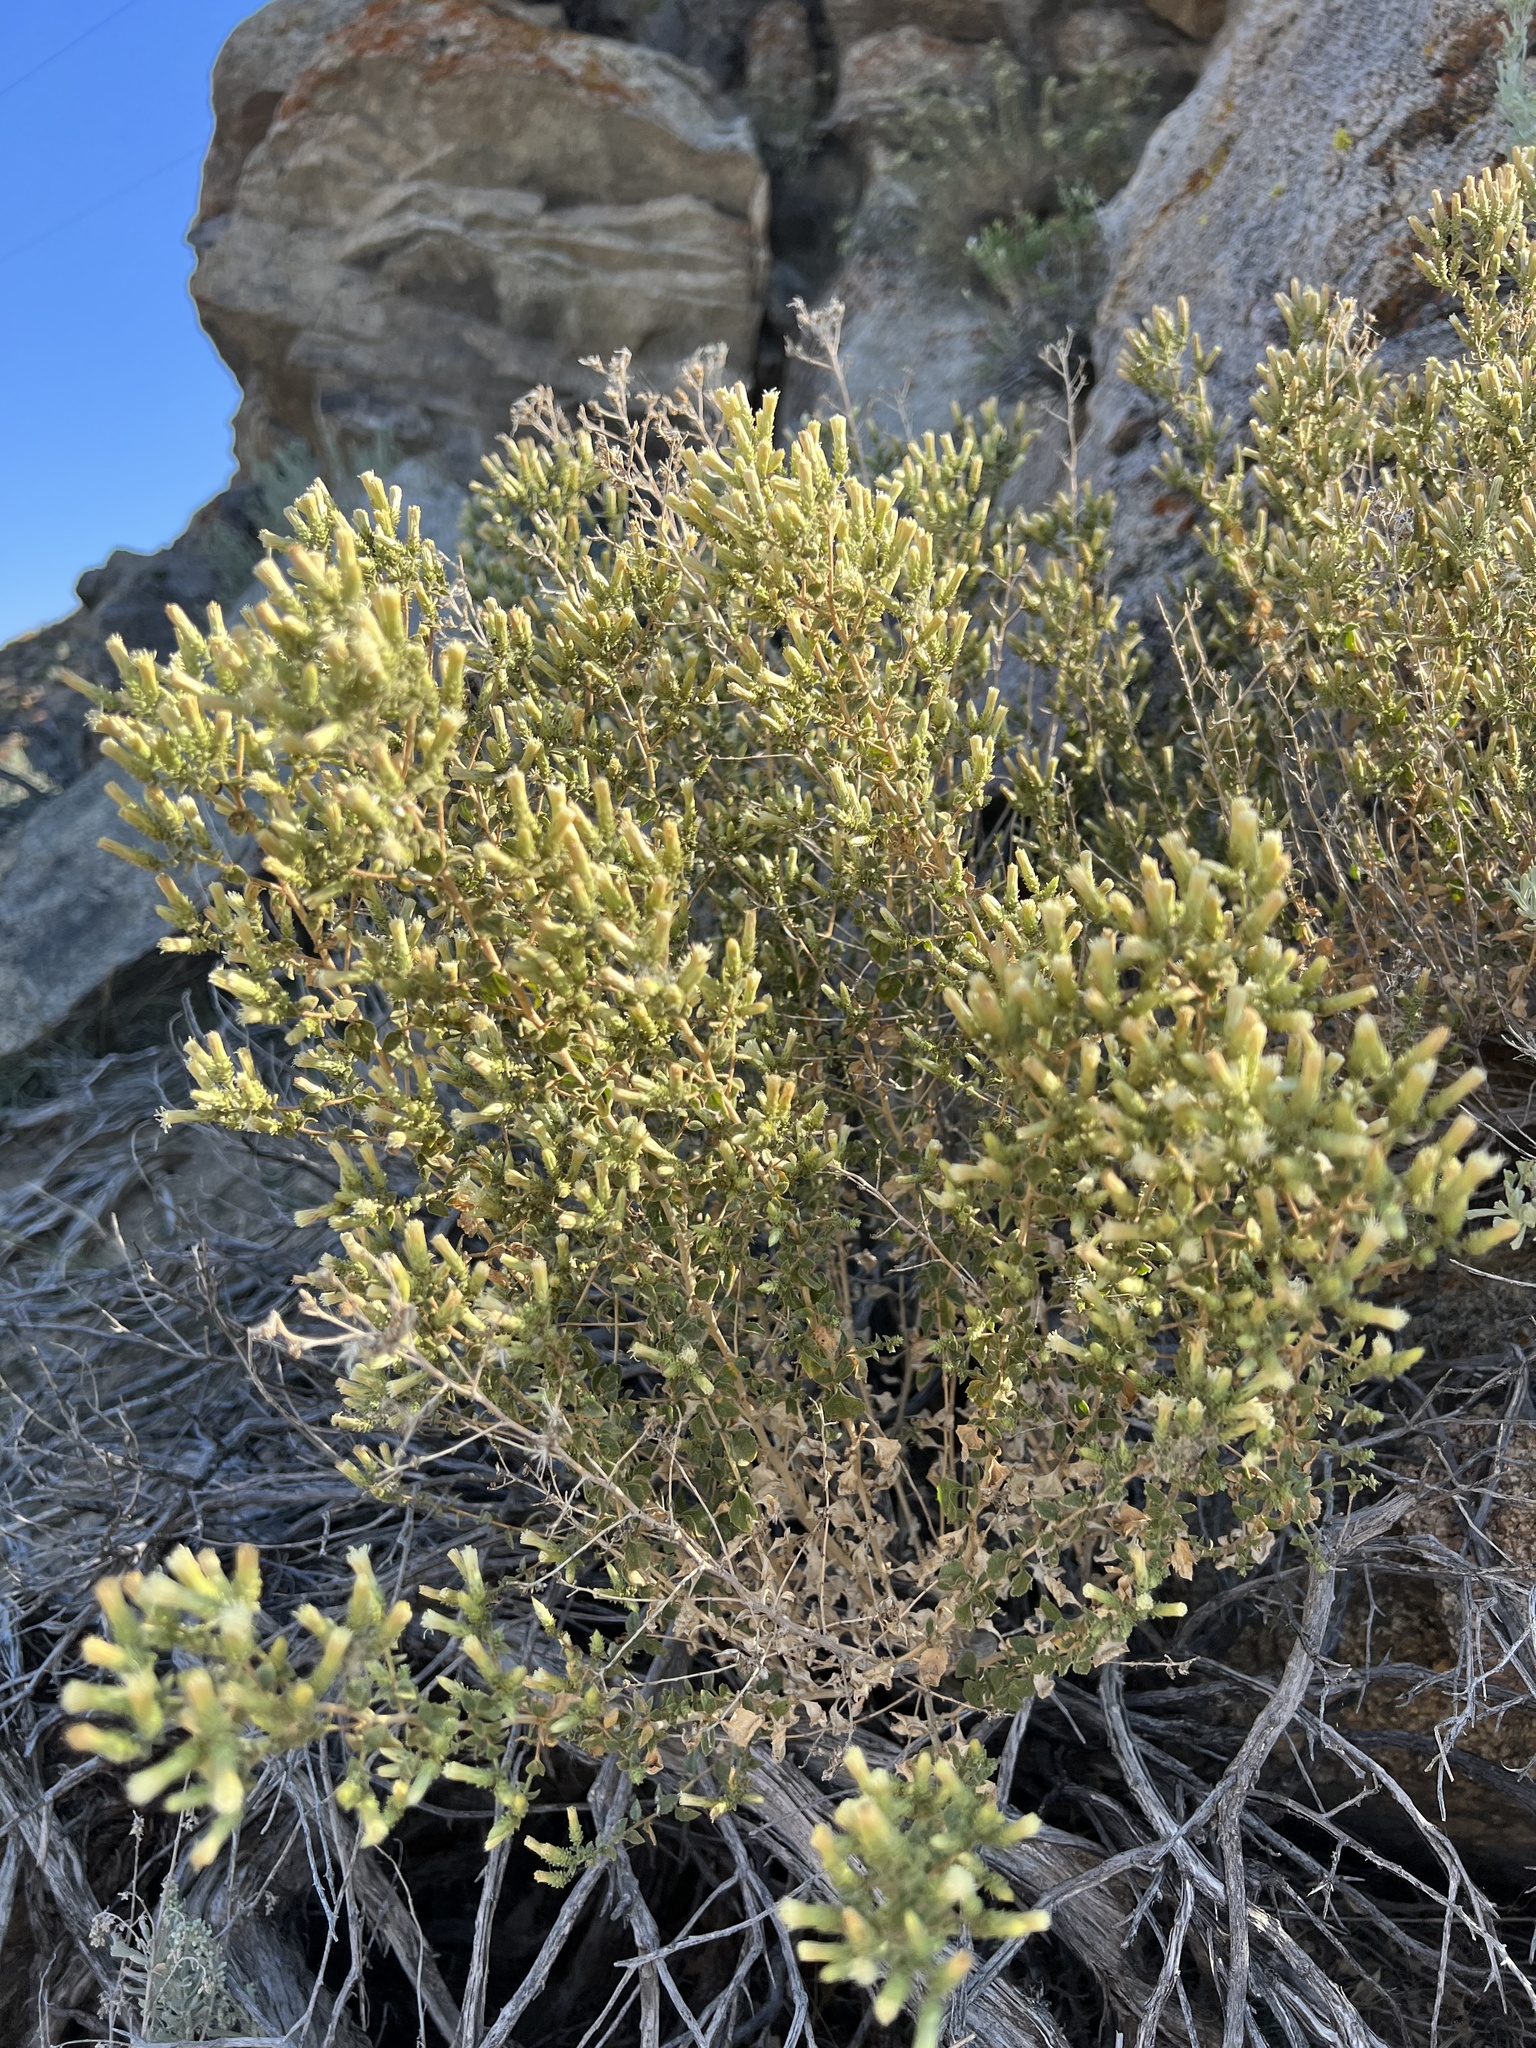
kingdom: Plantae
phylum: Tracheophyta
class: Magnoliopsida
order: Asterales
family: Asteraceae
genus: Brickellia
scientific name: Brickellia microphylla
